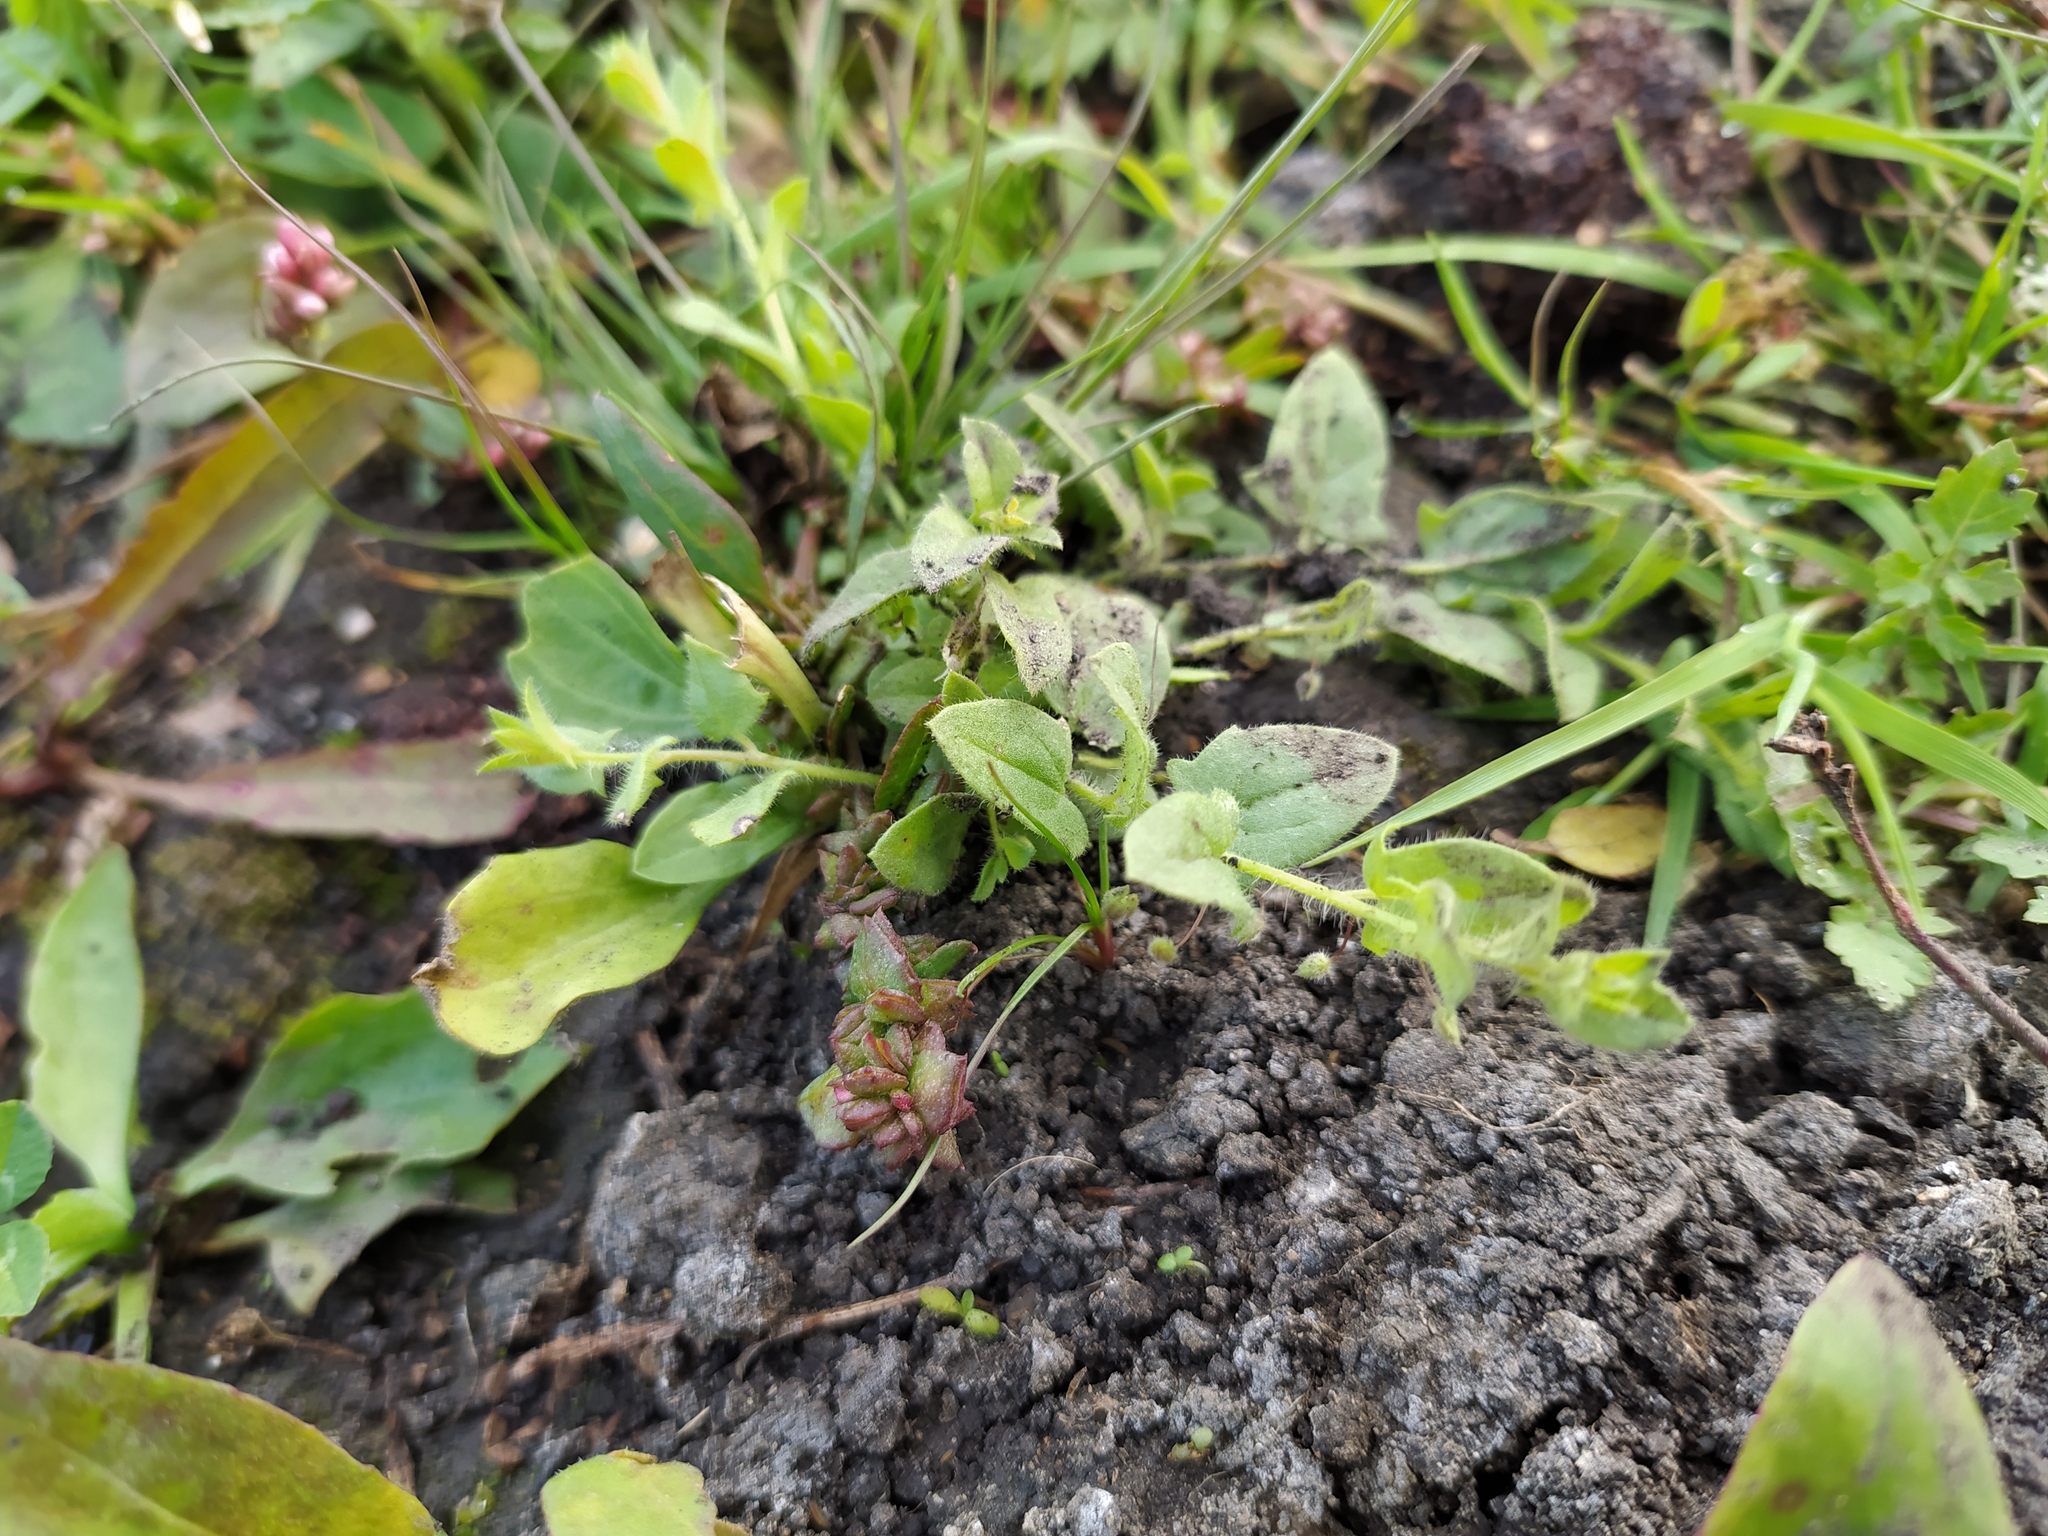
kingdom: Plantae
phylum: Tracheophyta
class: Magnoliopsida
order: Lamiales
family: Plantaginaceae
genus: Kickxia
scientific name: Kickxia elatine
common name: Sharp-leaved fluellen
